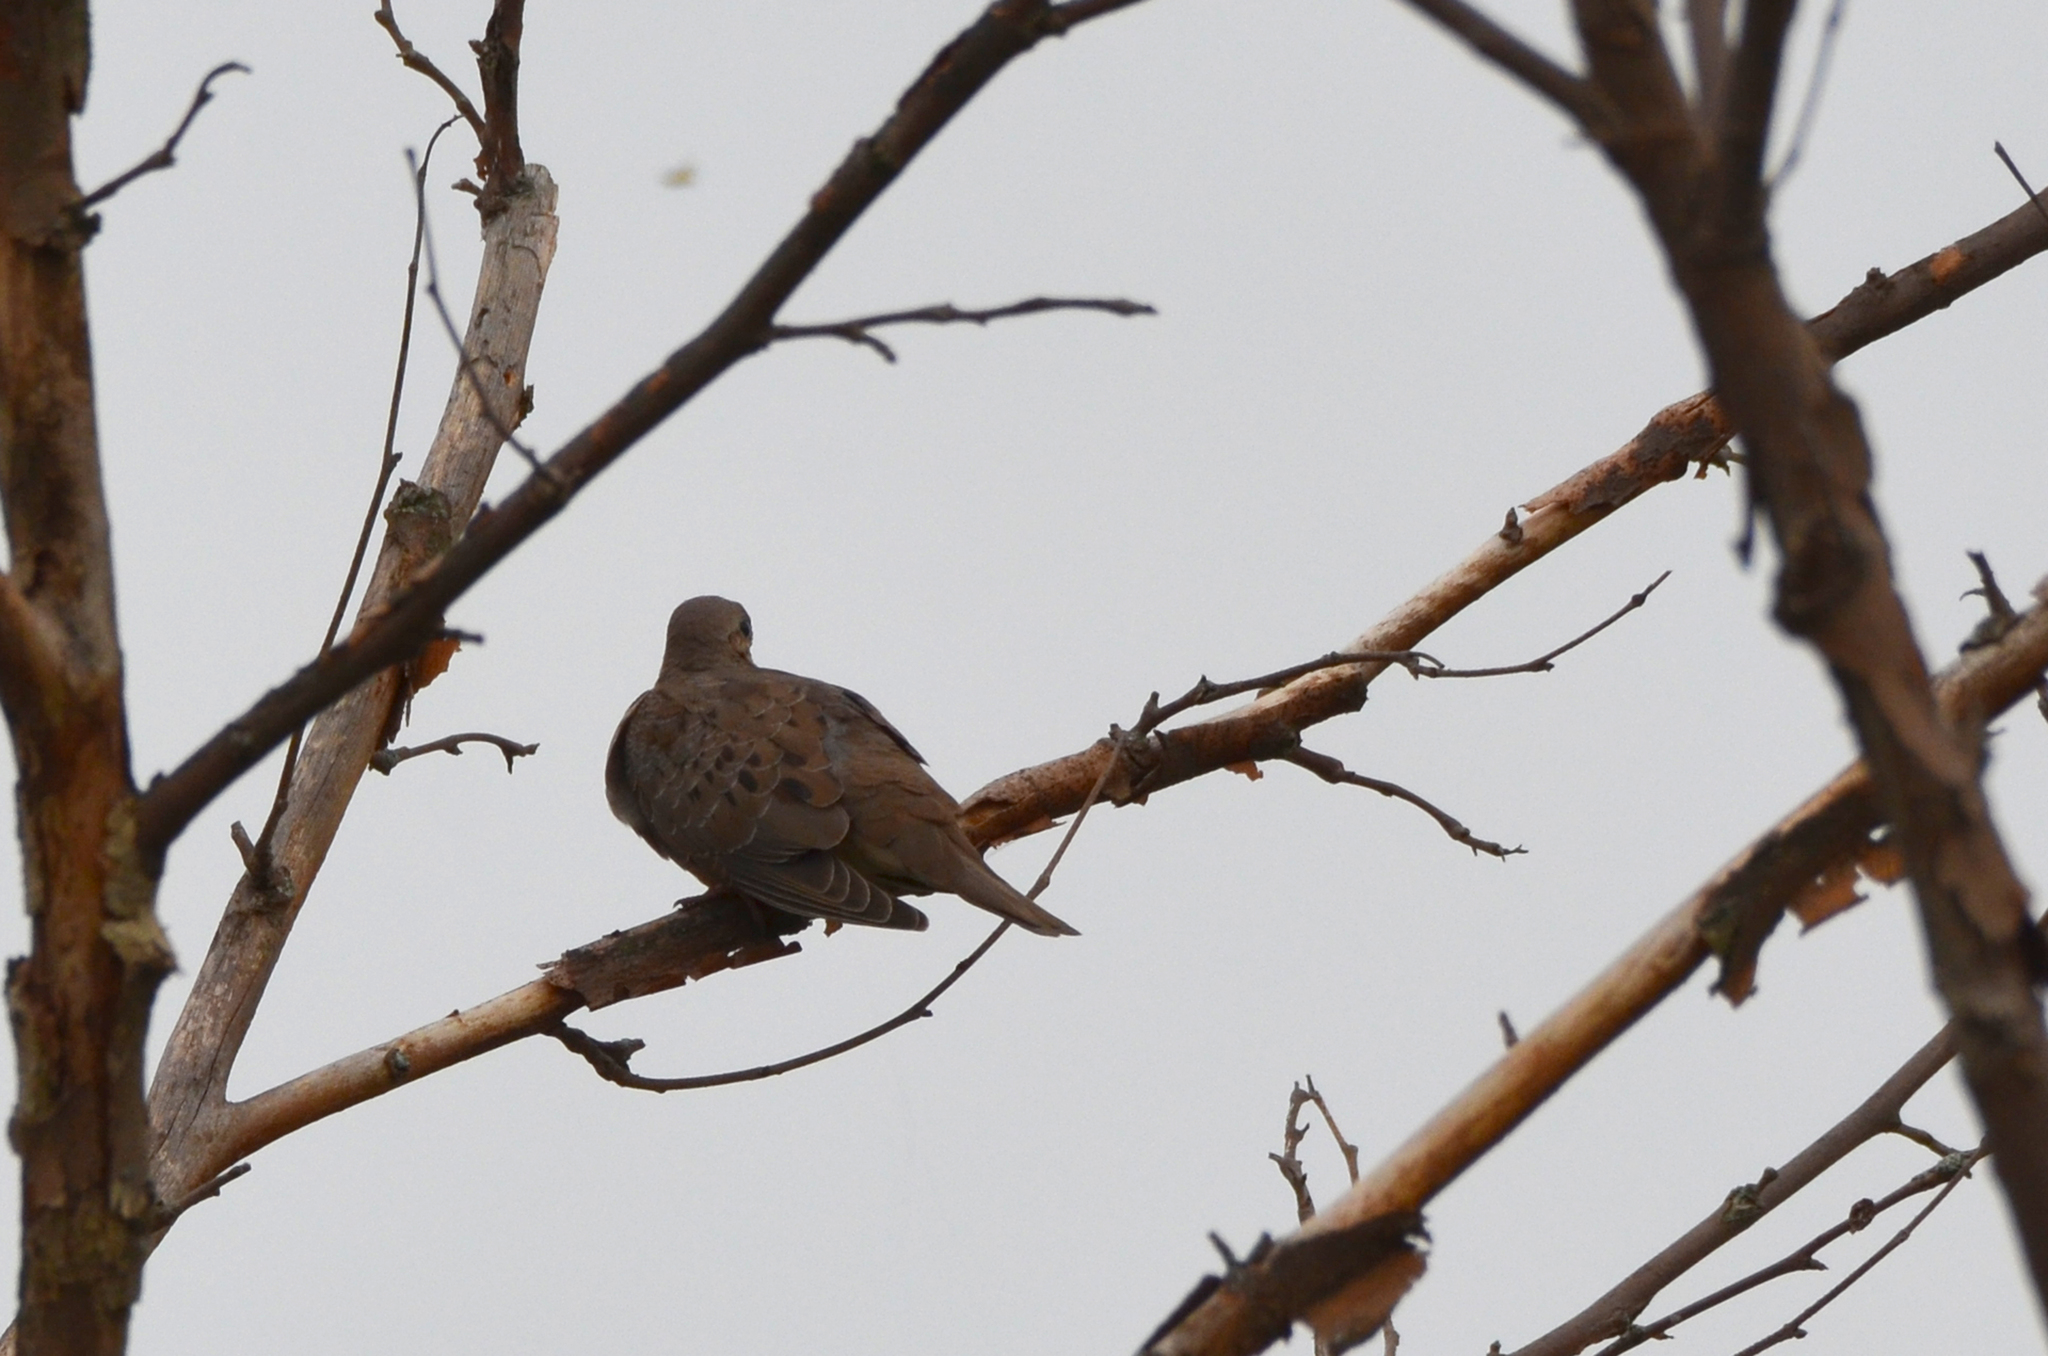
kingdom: Animalia
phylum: Chordata
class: Aves
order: Columbiformes
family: Columbidae
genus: Zenaida
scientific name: Zenaida macroura
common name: Mourning dove
